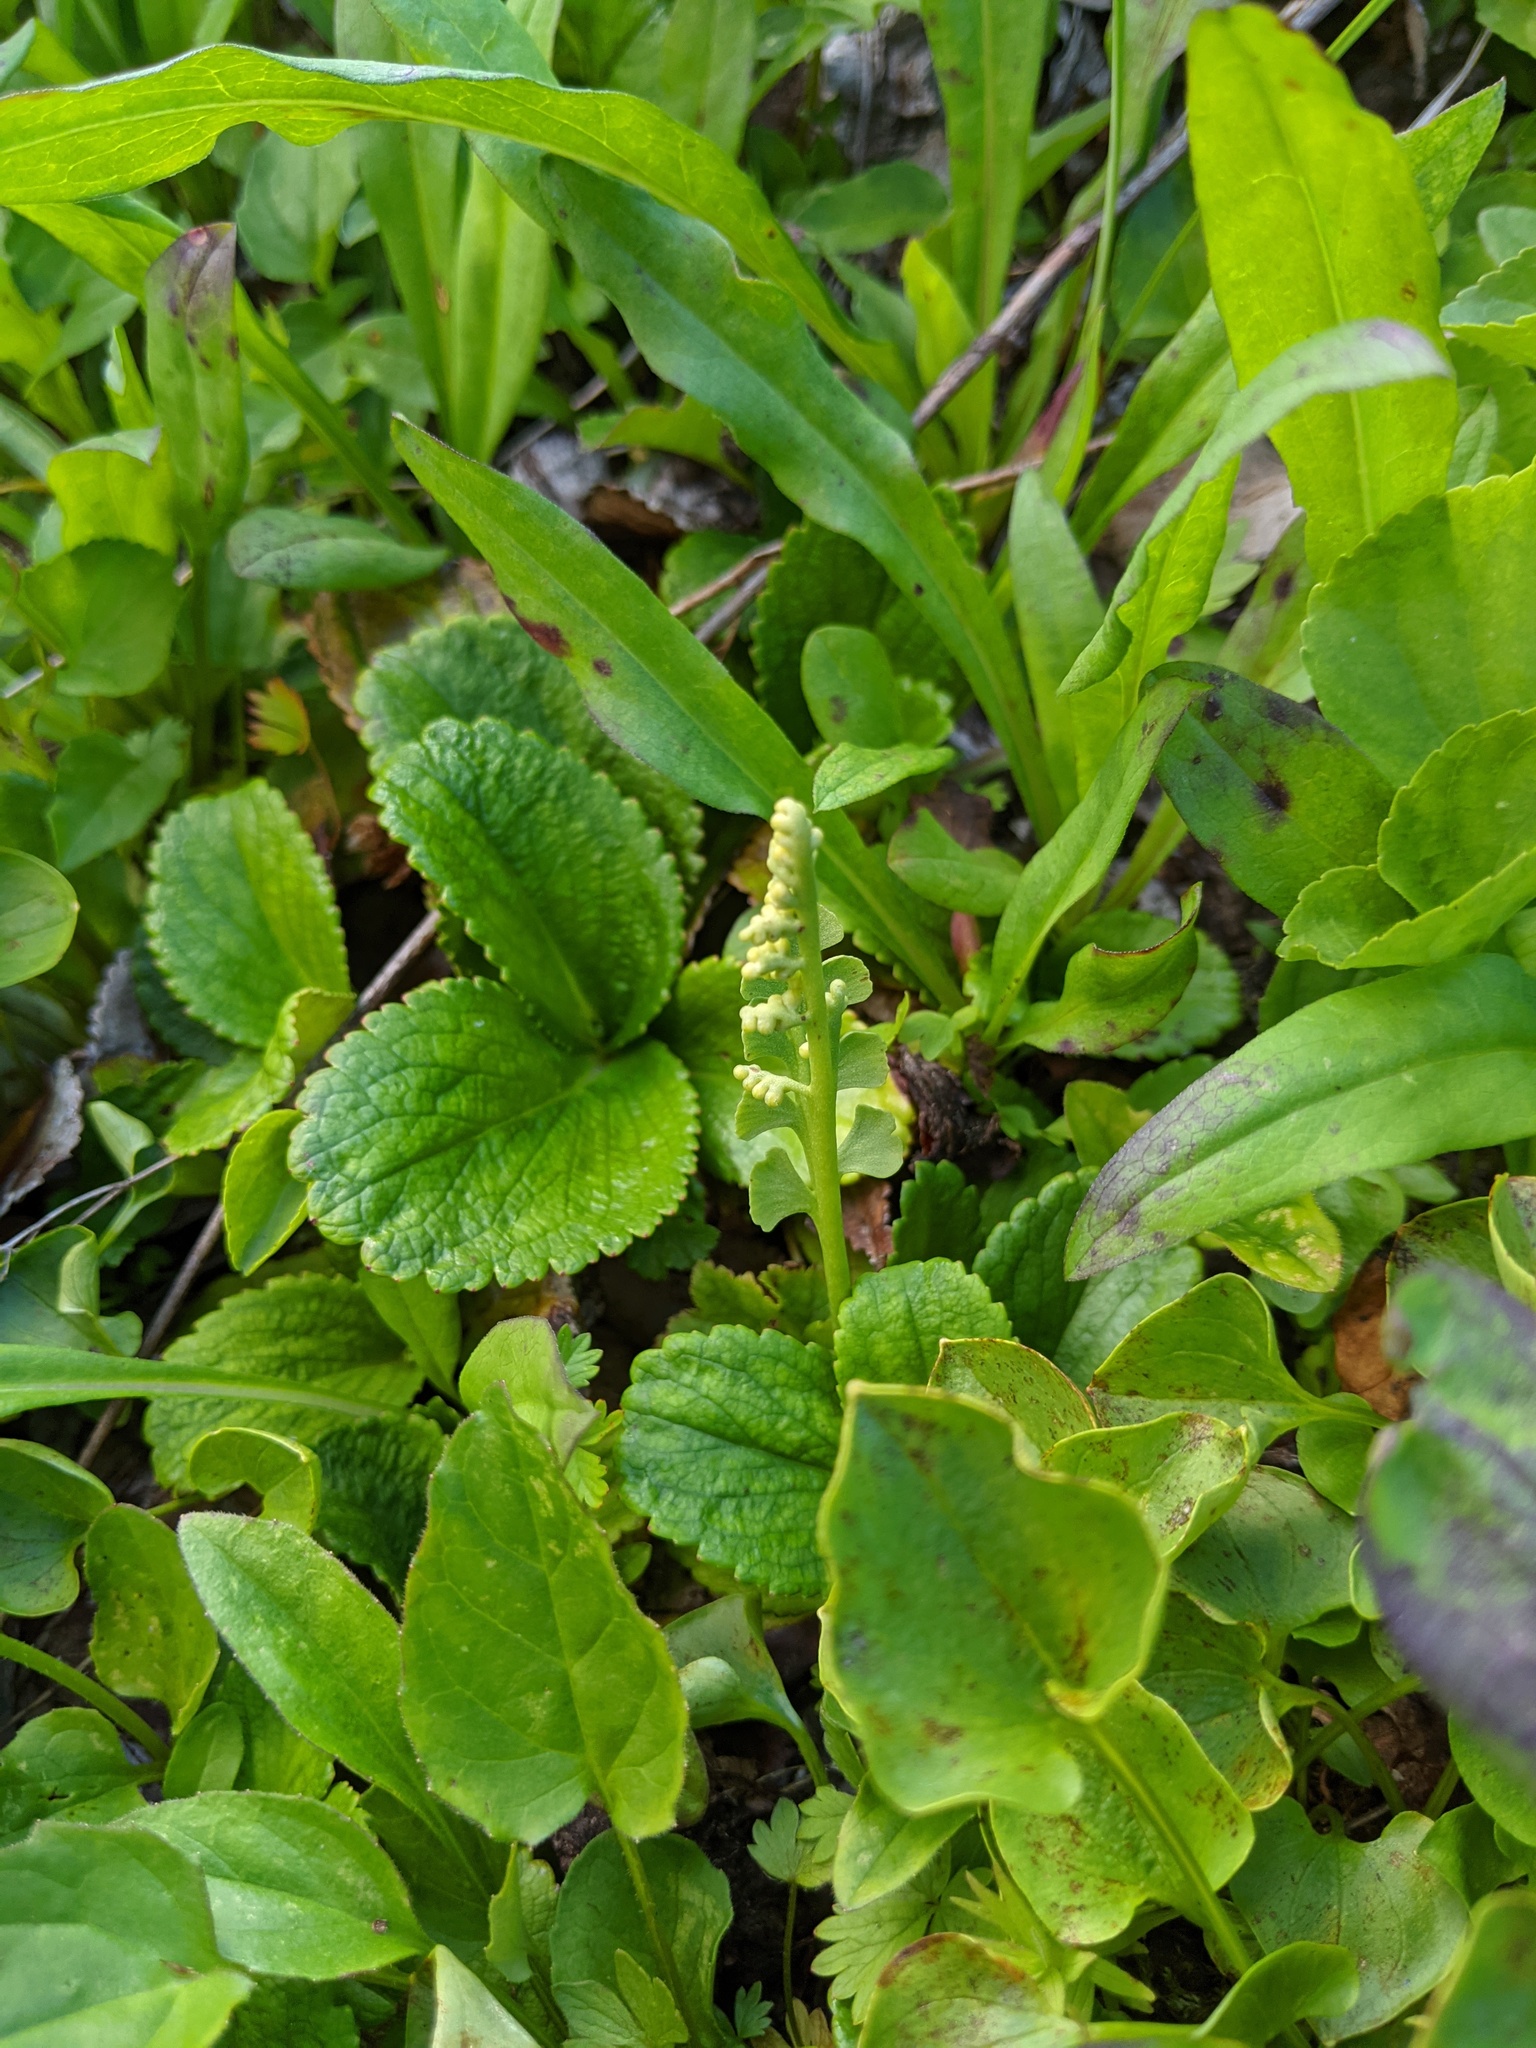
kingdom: Plantae
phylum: Tracheophyta
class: Polypodiopsida
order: Ophioglossales
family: Ophioglossaceae
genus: Botrychium
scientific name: Botrychium minganense
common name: Mingan grapefern
